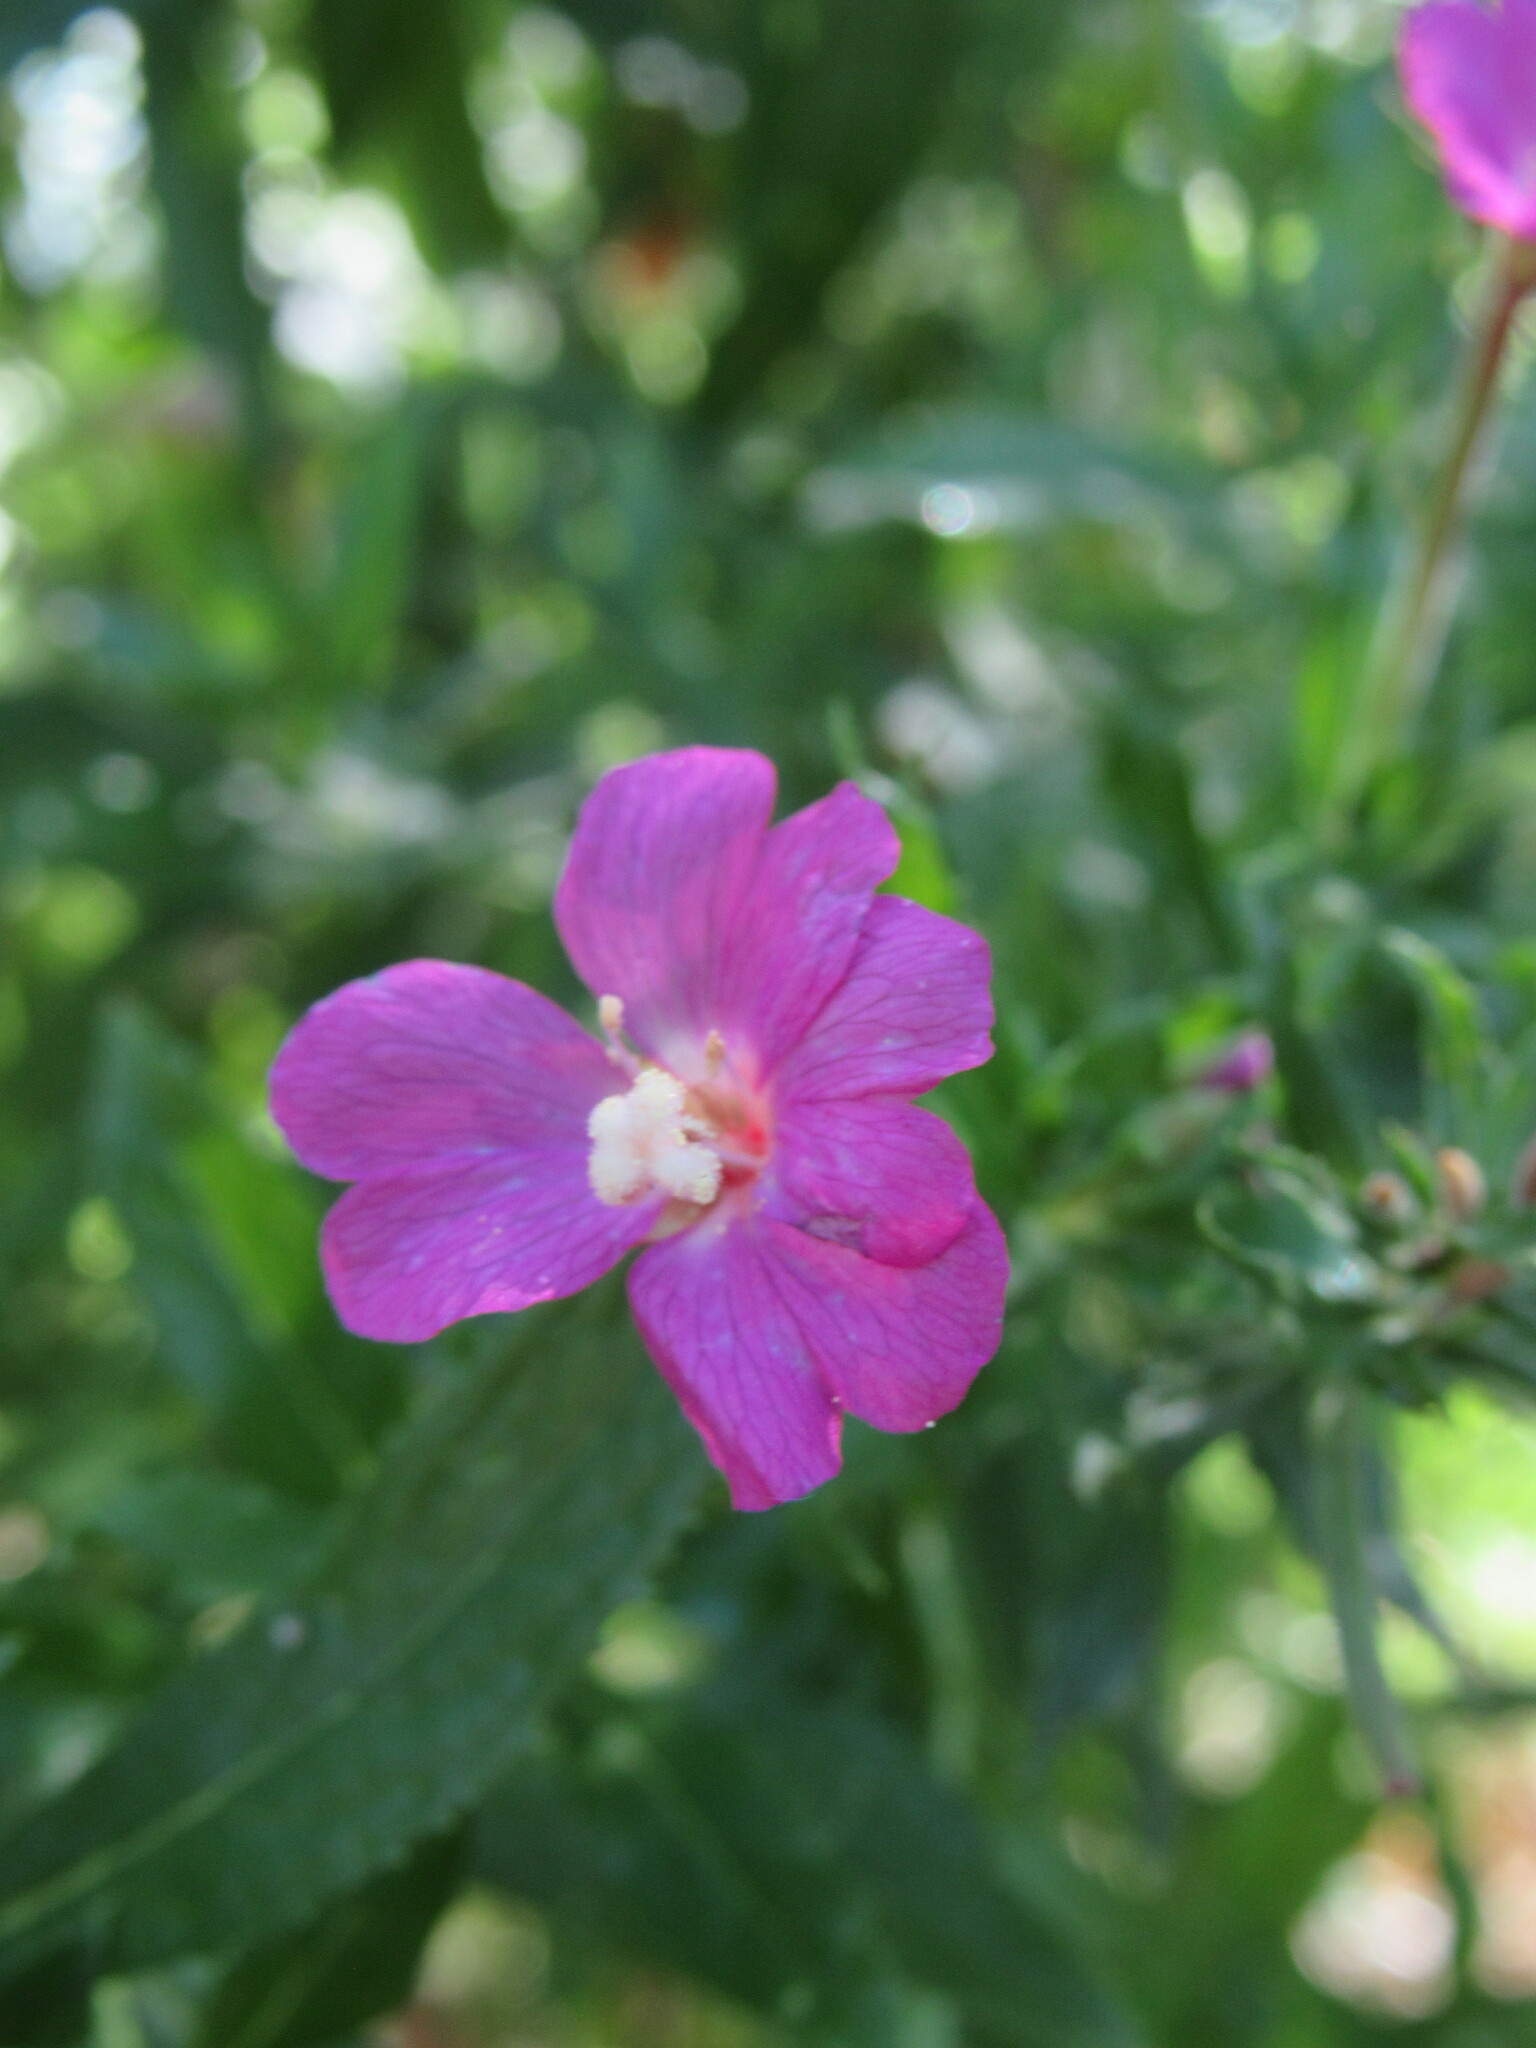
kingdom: Plantae
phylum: Tracheophyta
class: Magnoliopsida
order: Myrtales
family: Onagraceae
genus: Epilobium
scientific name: Epilobium hirsutum
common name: Great willowherb
